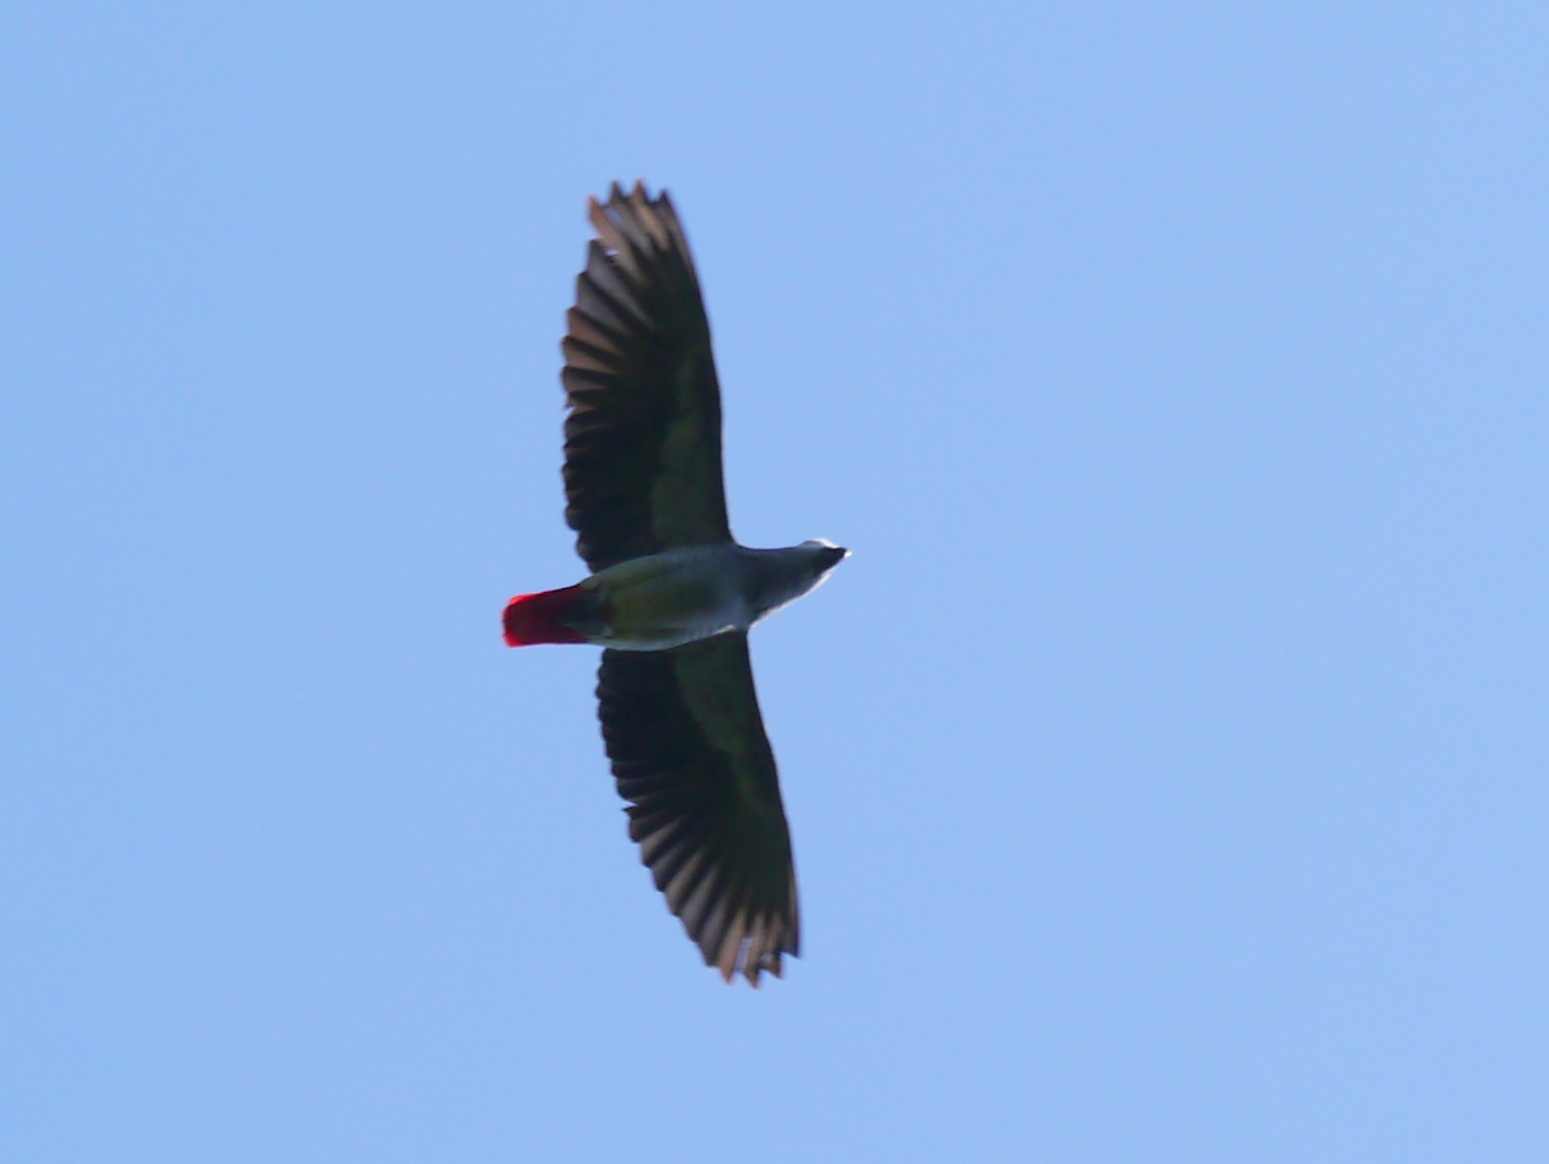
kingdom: Animalia
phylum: Chordata
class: Aves
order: Psittaciformes
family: Psittacidae
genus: Psittacus
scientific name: Psittacus erithacus
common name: Grey parrot
